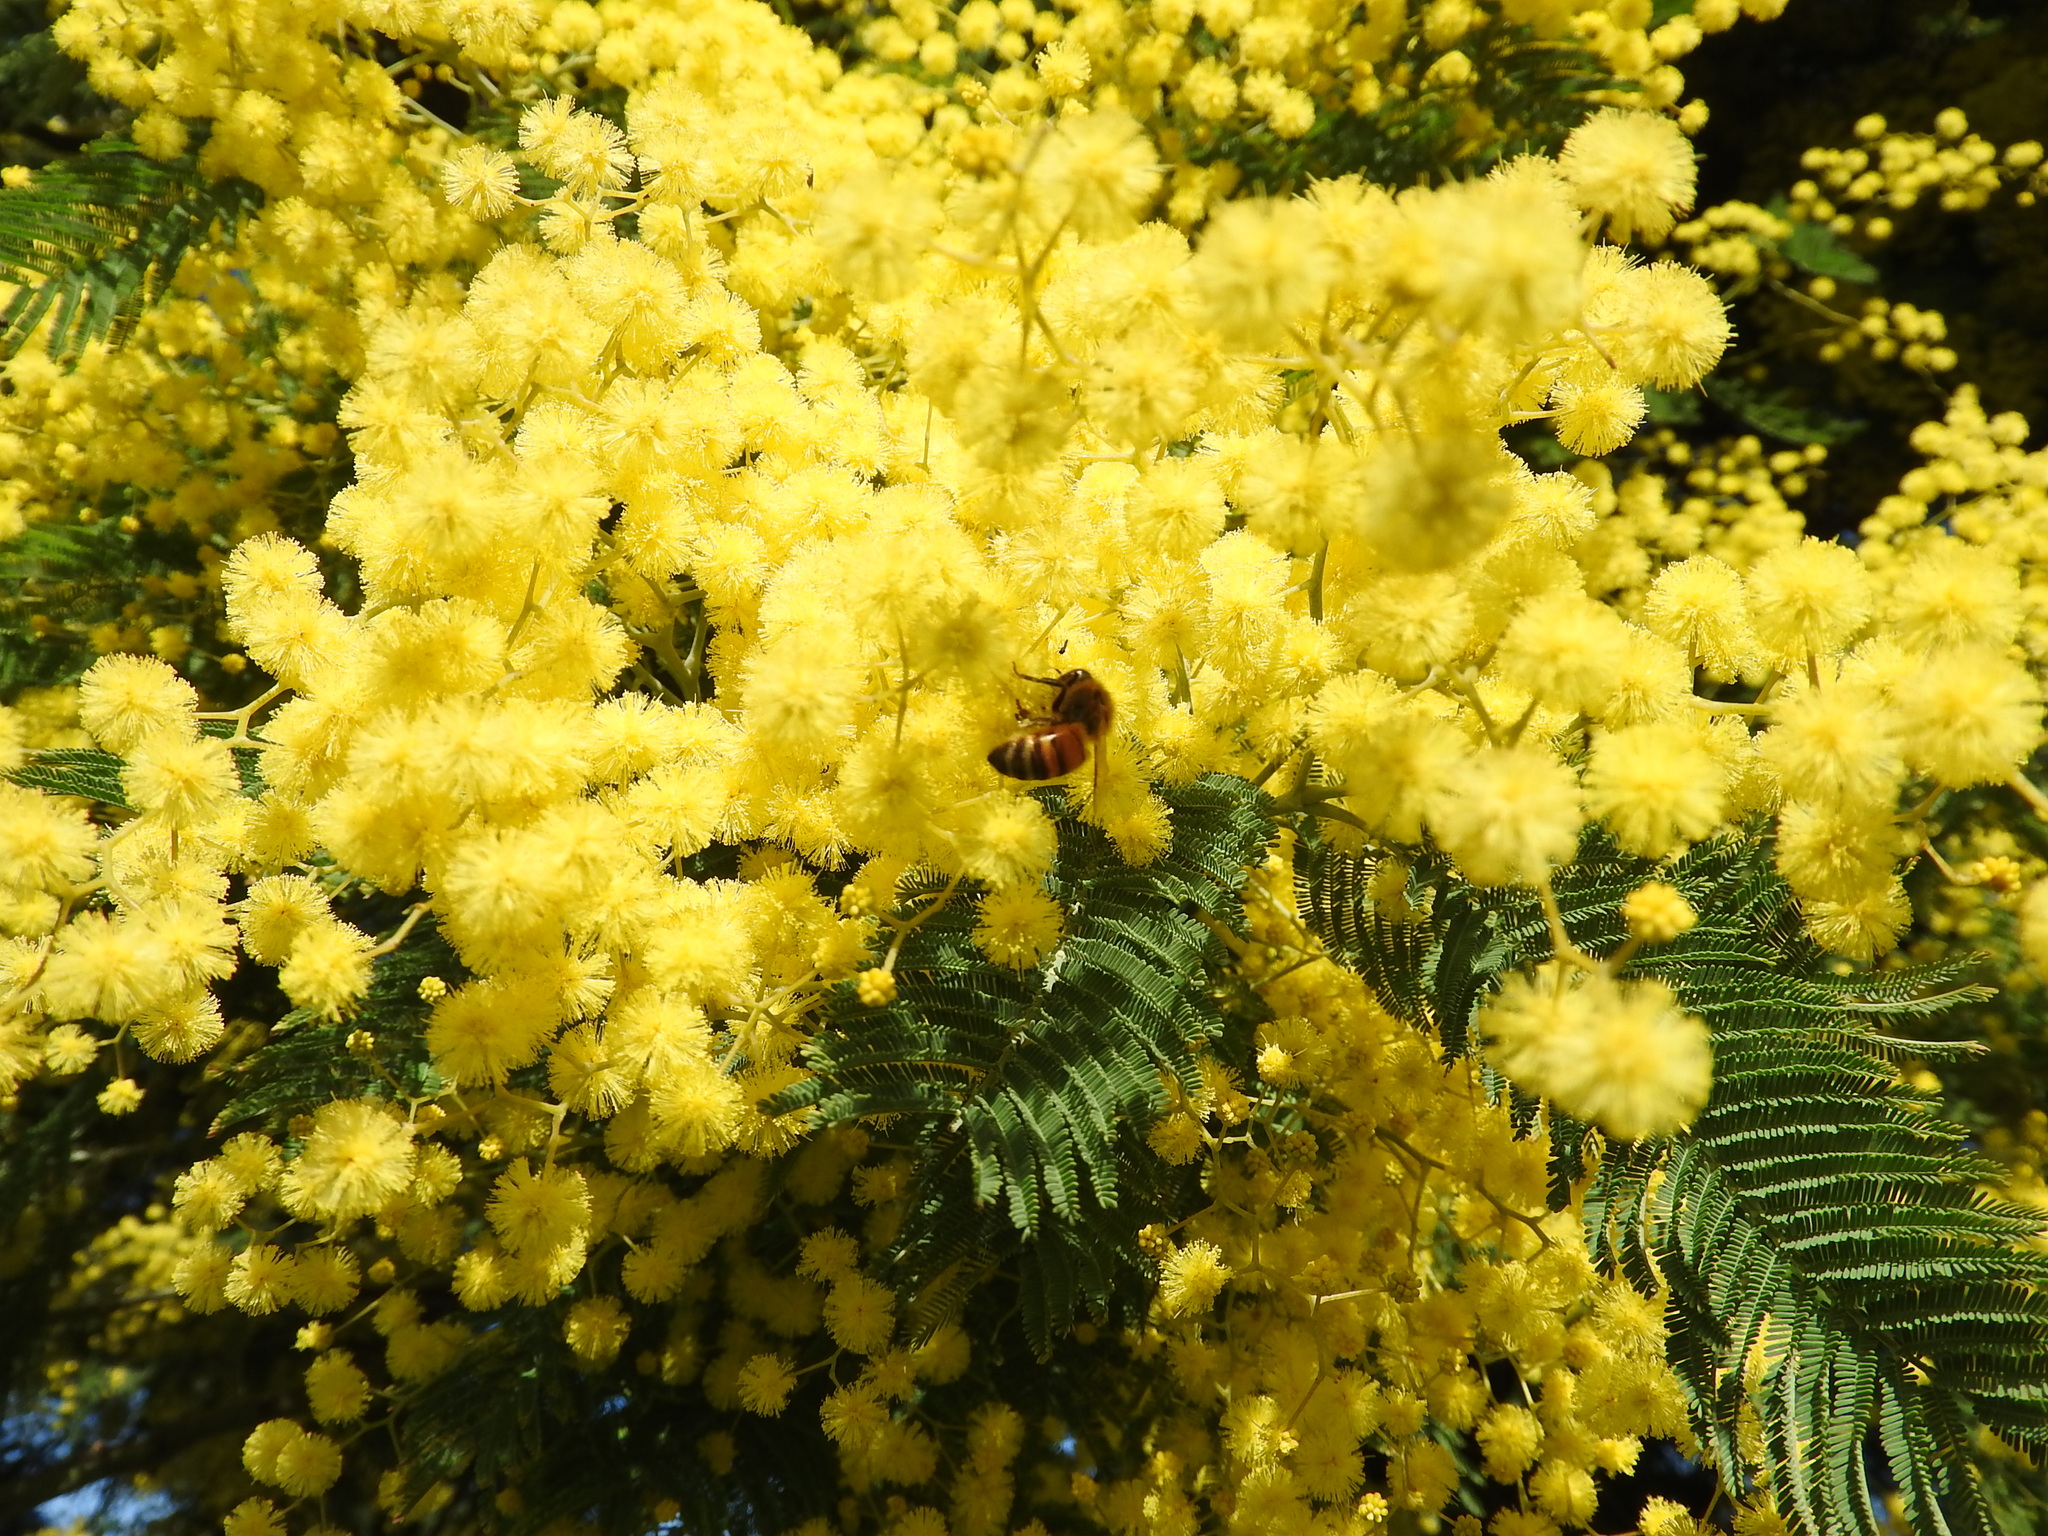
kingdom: Animalia
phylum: Arthropoda
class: Insecta
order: Hymenoptera
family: Apidae
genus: Apis
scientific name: Apis mellifera
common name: Honey bee
